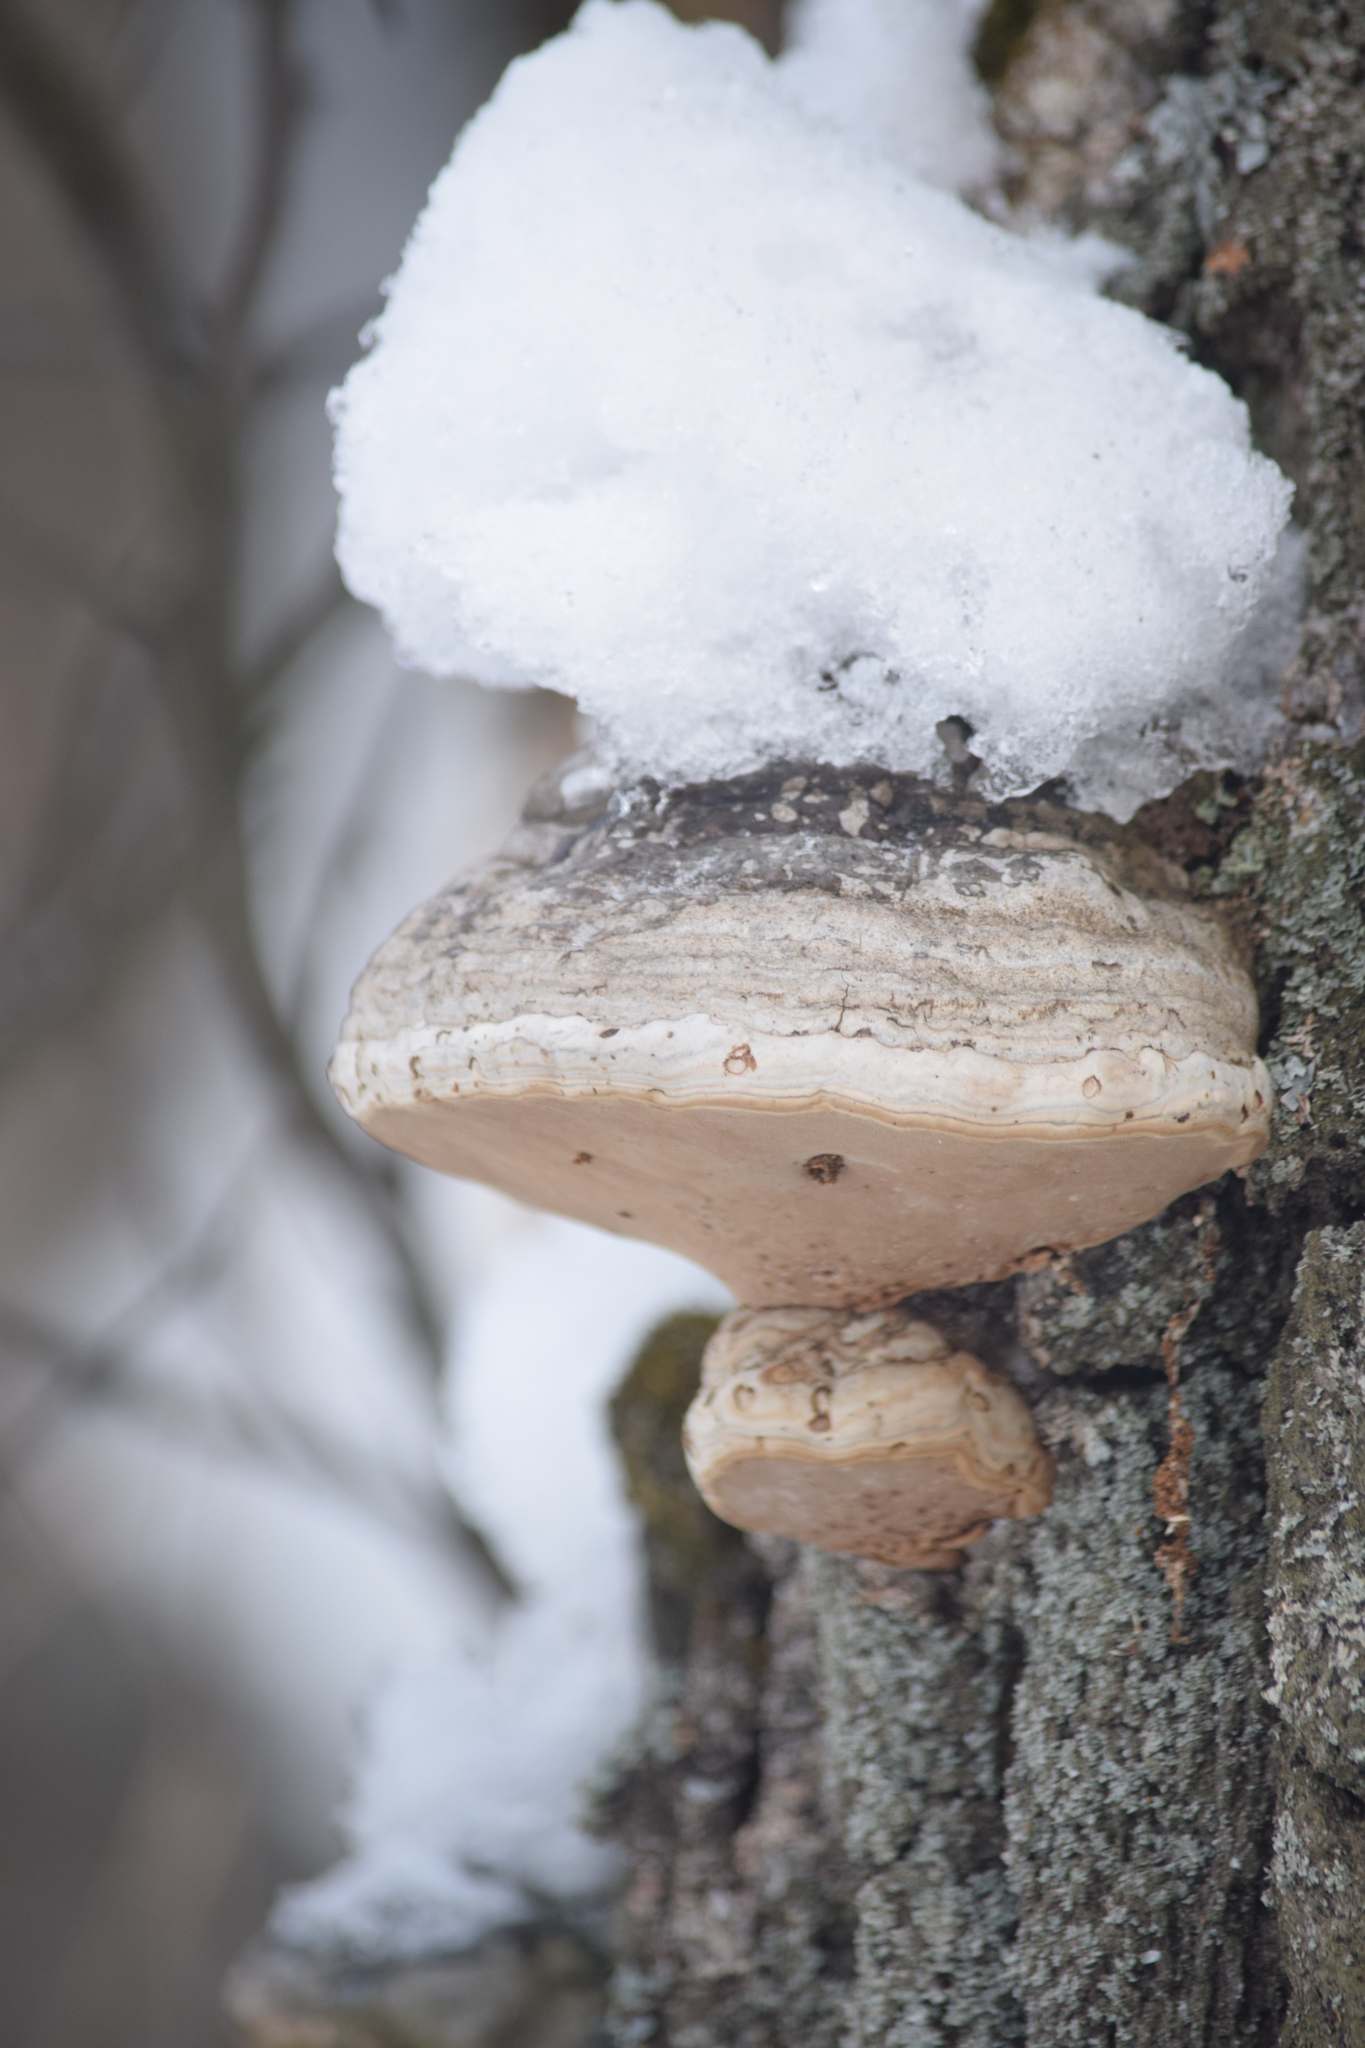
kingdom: Fungi
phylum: Basidiomycota
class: Agaricomycetes
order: Polyporales
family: Polyporaceae
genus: Fomes
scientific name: Fomes fomentarius
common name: Hoof fungus
